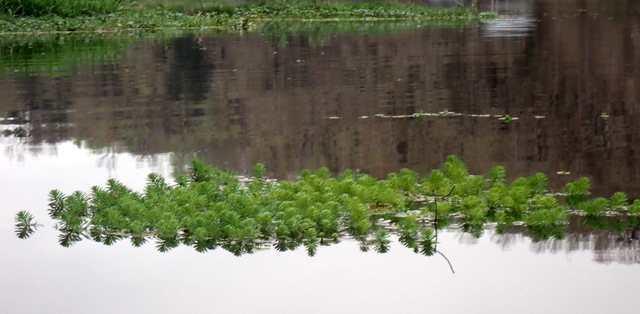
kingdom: Plantae
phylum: Tracheophyta
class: Magnoliopsida
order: Saxifragales
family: Haloragaceae
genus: Myriophyllum
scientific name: Myriophyllum aquaticum
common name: Parrot's feather
